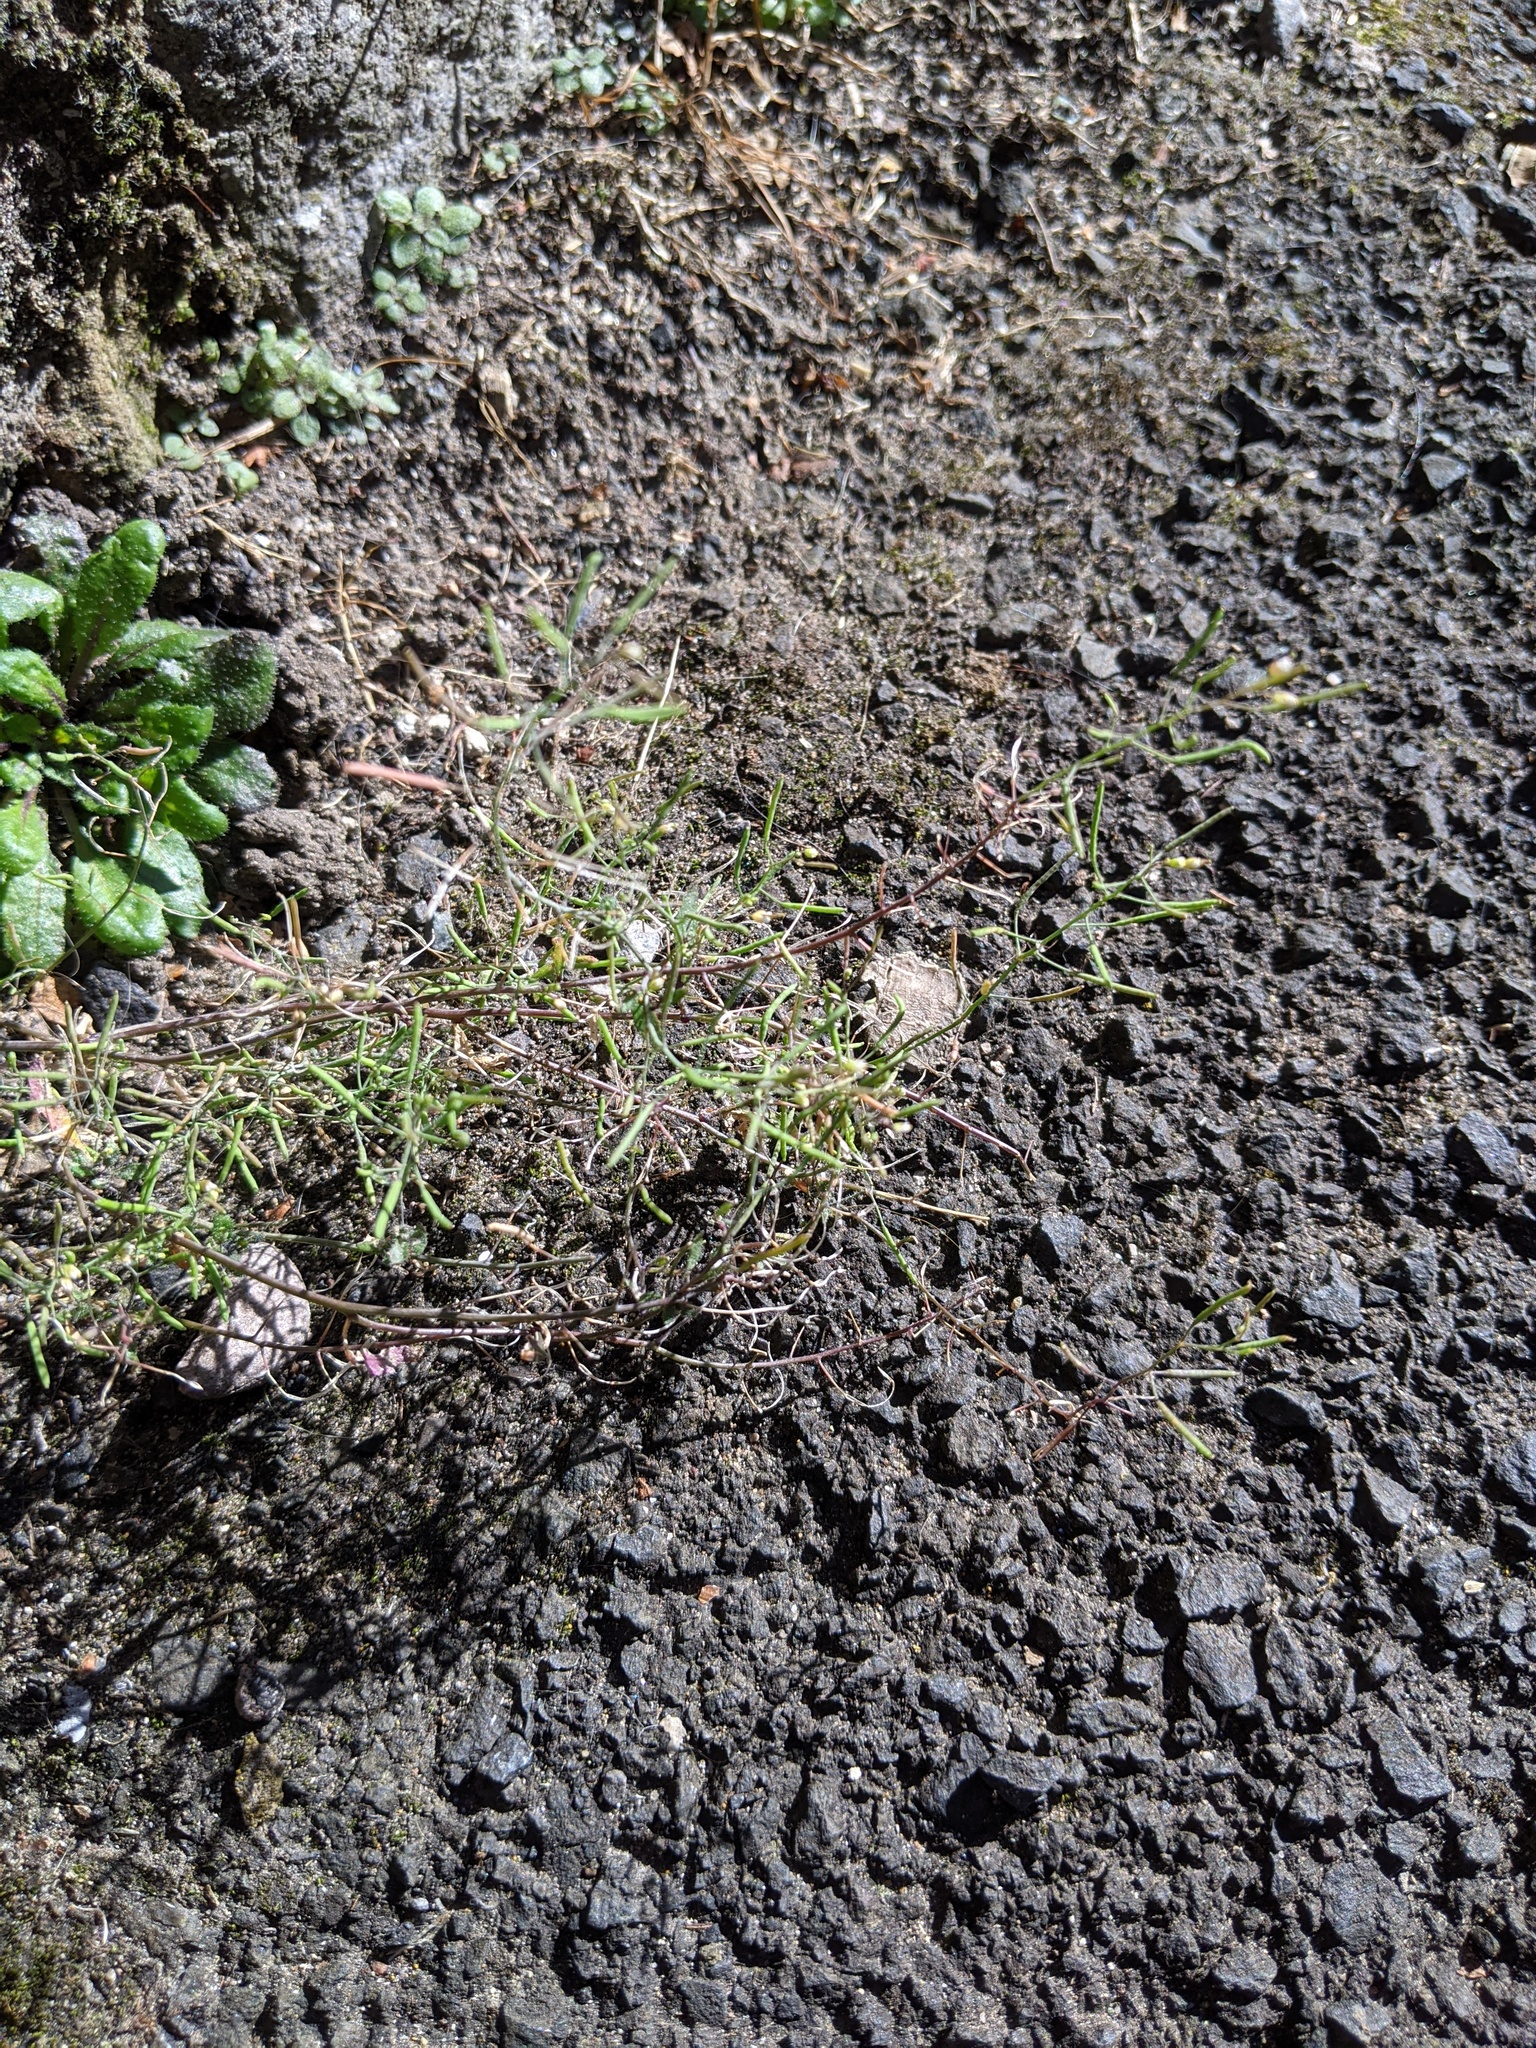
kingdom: Plantae
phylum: Tracheophyta
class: Magnoliopsida
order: Brassicales
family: Brassicaceae
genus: Arabidopsis
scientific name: Arabidopsis thaliana
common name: Thale cress
